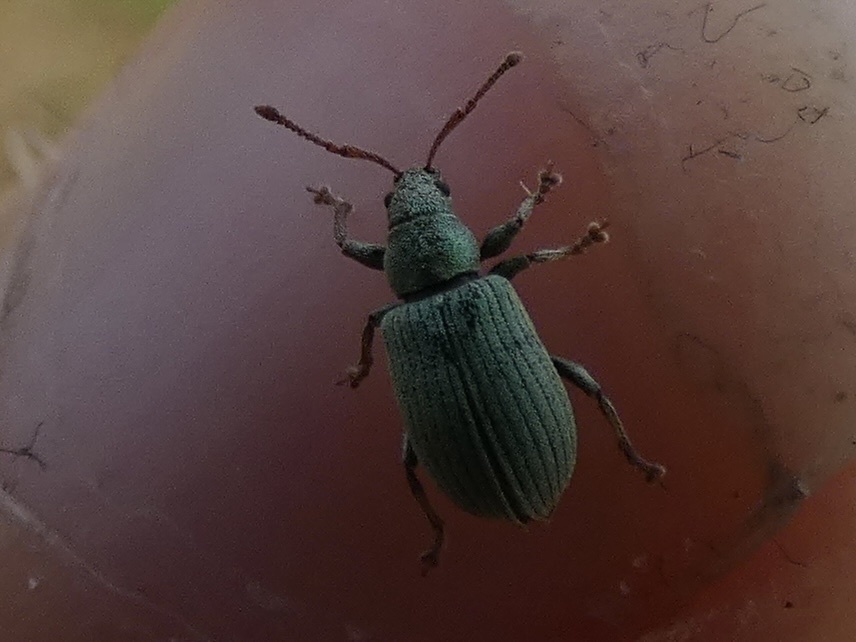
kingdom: Animalia
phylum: Arthropoda
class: Insecta
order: Coleoptera
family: Curculionidae
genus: Phyllobius
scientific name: Phyllobius roboretanus
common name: Small green nettle weevil
